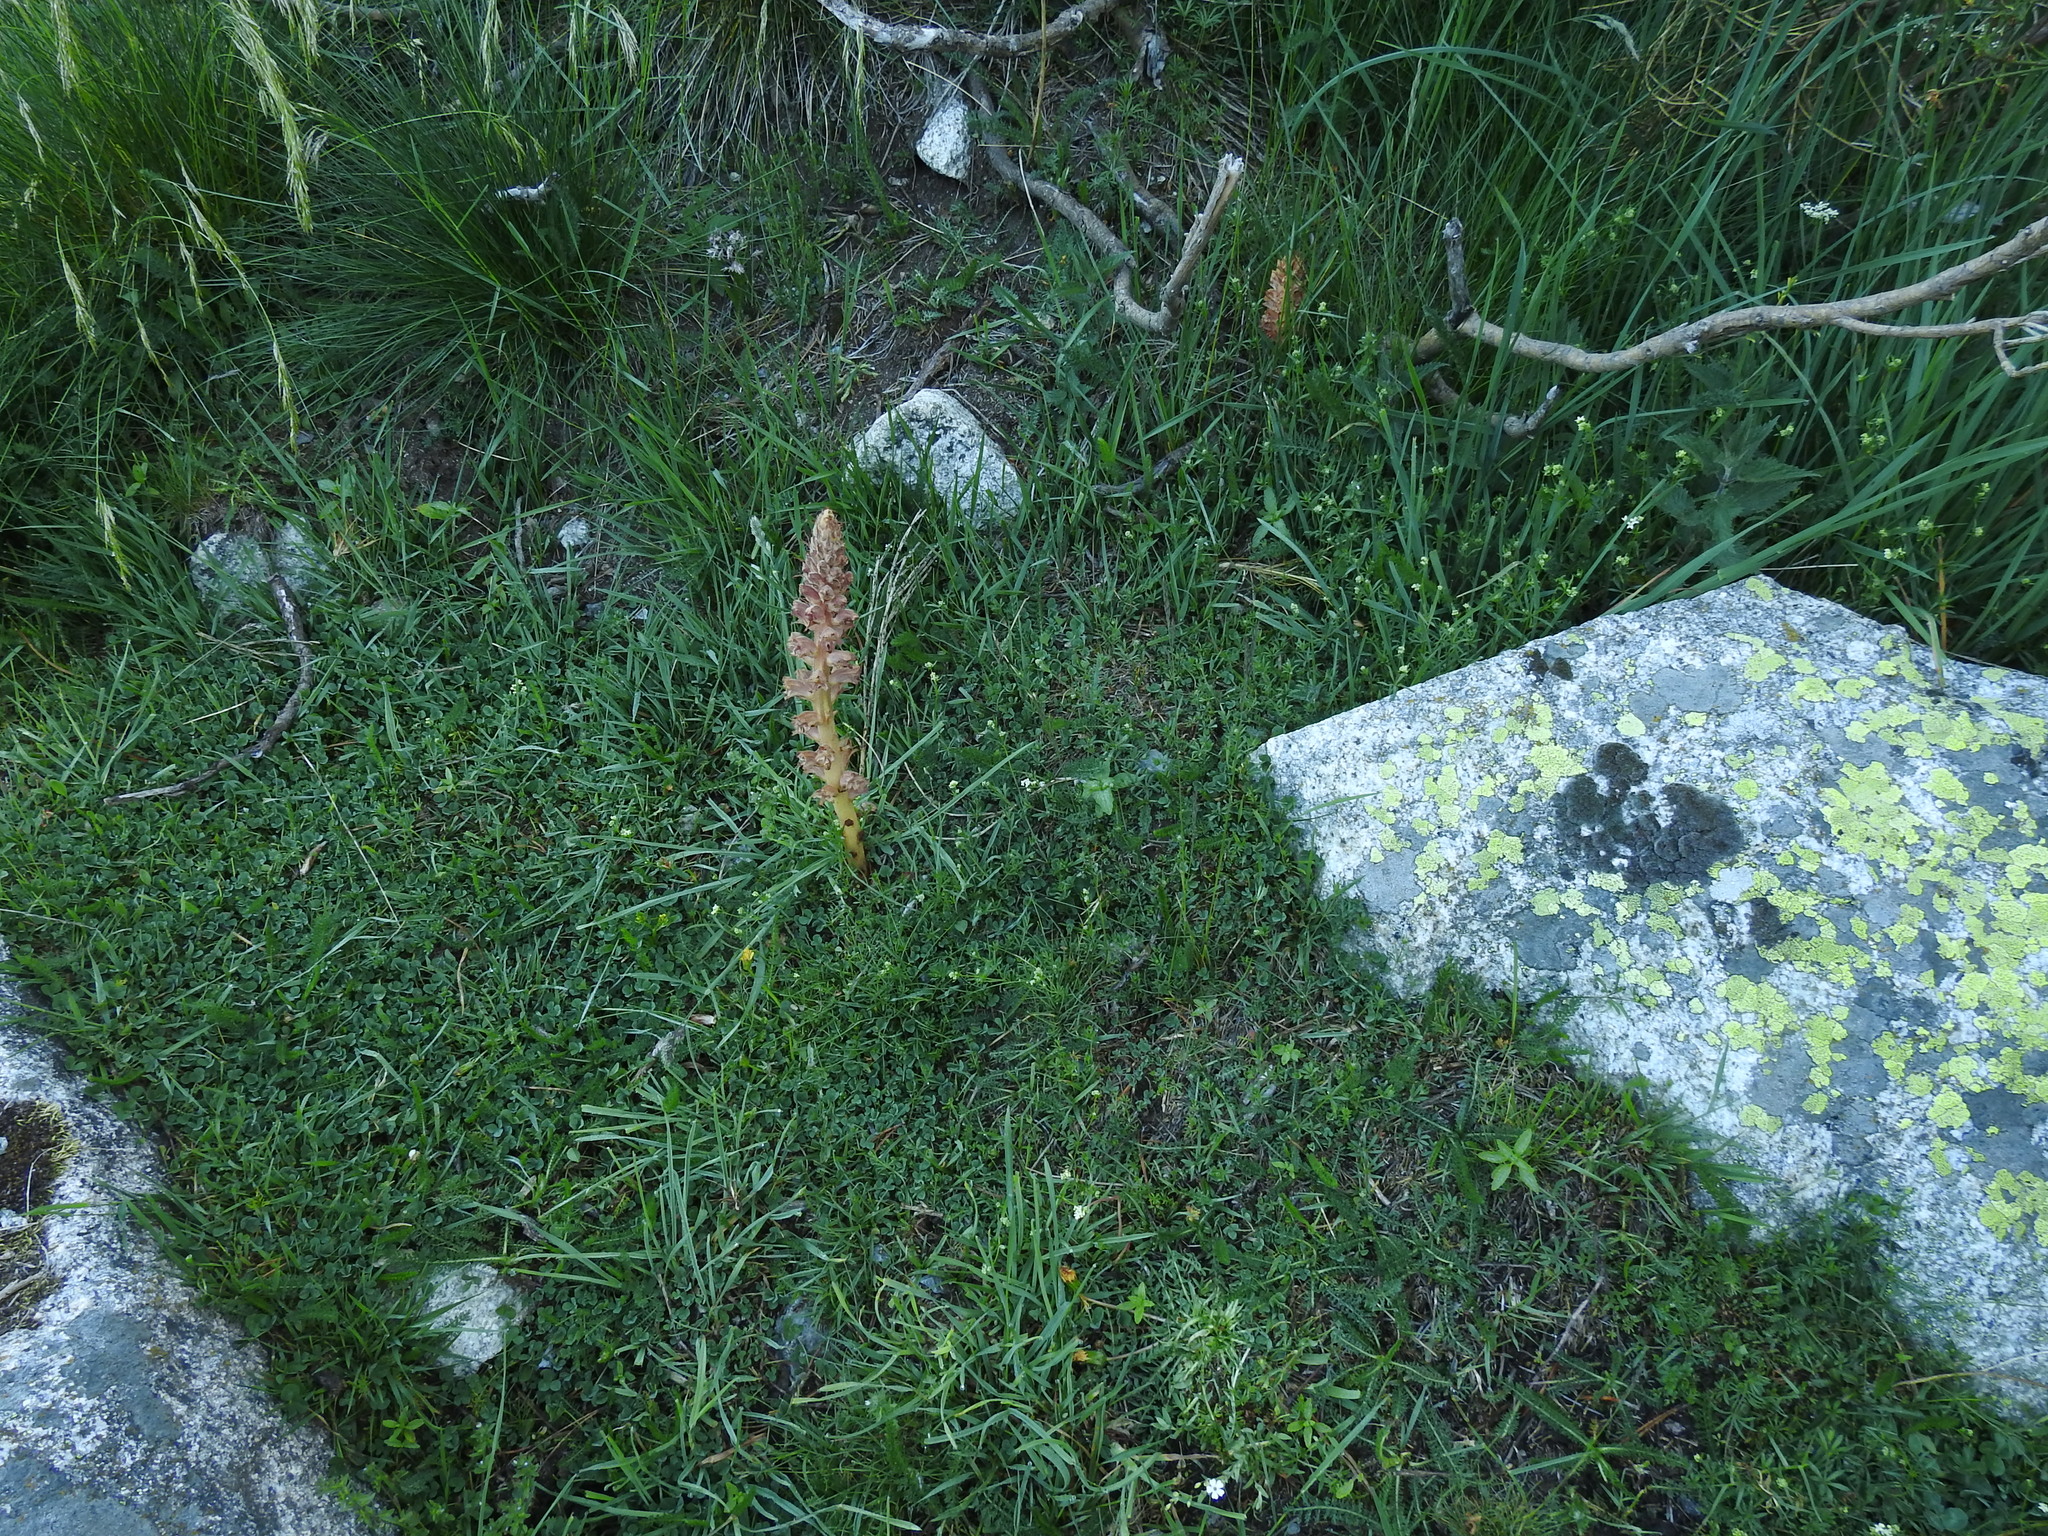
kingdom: Plantae
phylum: Tracheophyta
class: Magnoliopsida
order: Lamiales
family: Orobanchaceae
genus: Orobanche
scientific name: Orobanche rapum-genistae
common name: Greater broomrape
